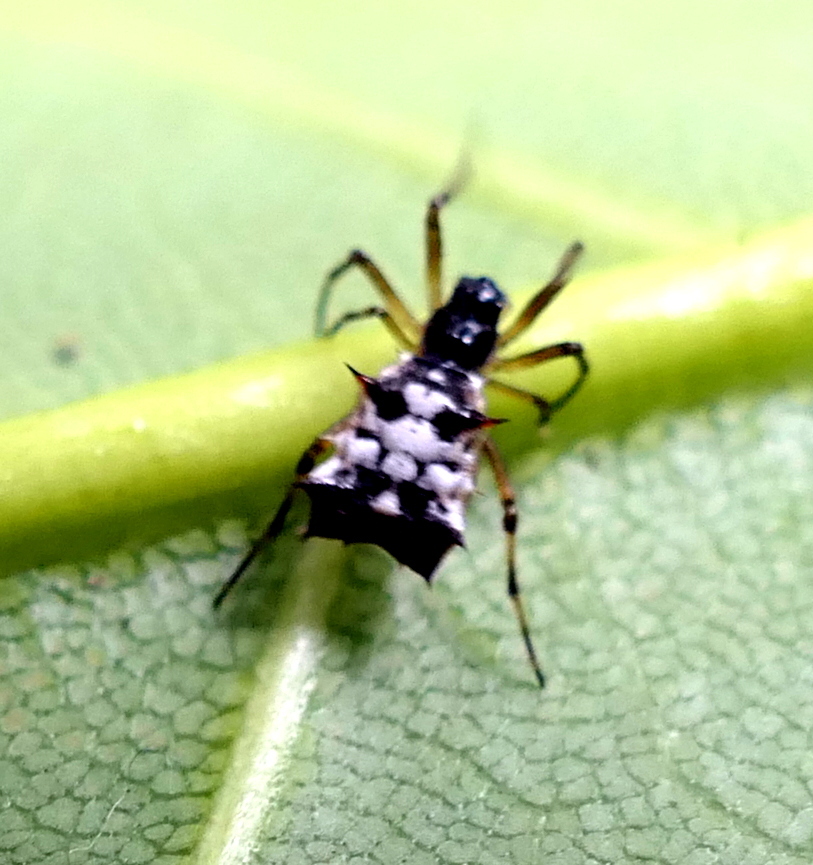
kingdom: Animalia
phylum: Arthropoda
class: Arachnida
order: Araneae
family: Araneidae
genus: Micrathena
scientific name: Micrathena picta
